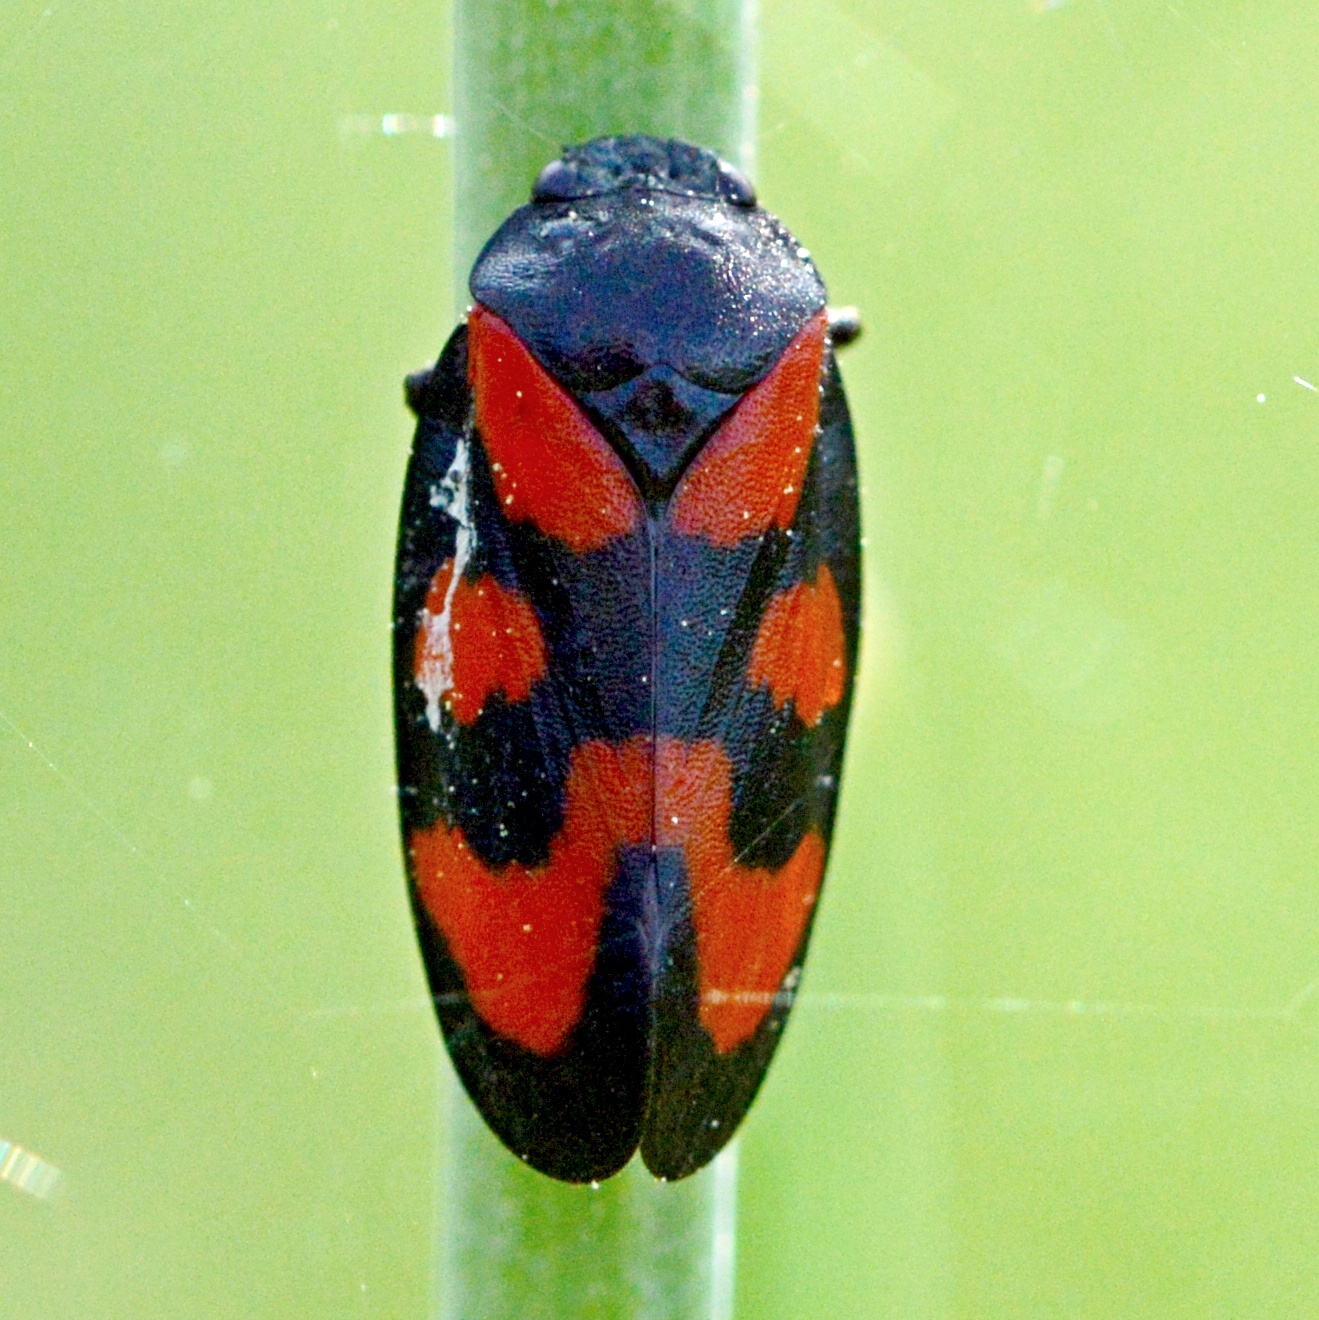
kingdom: Animalia
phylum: Arthropoda
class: Insecta
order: Hemiptera
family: Cercopidae
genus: Cercopis
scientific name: Cercopis vulnerata
